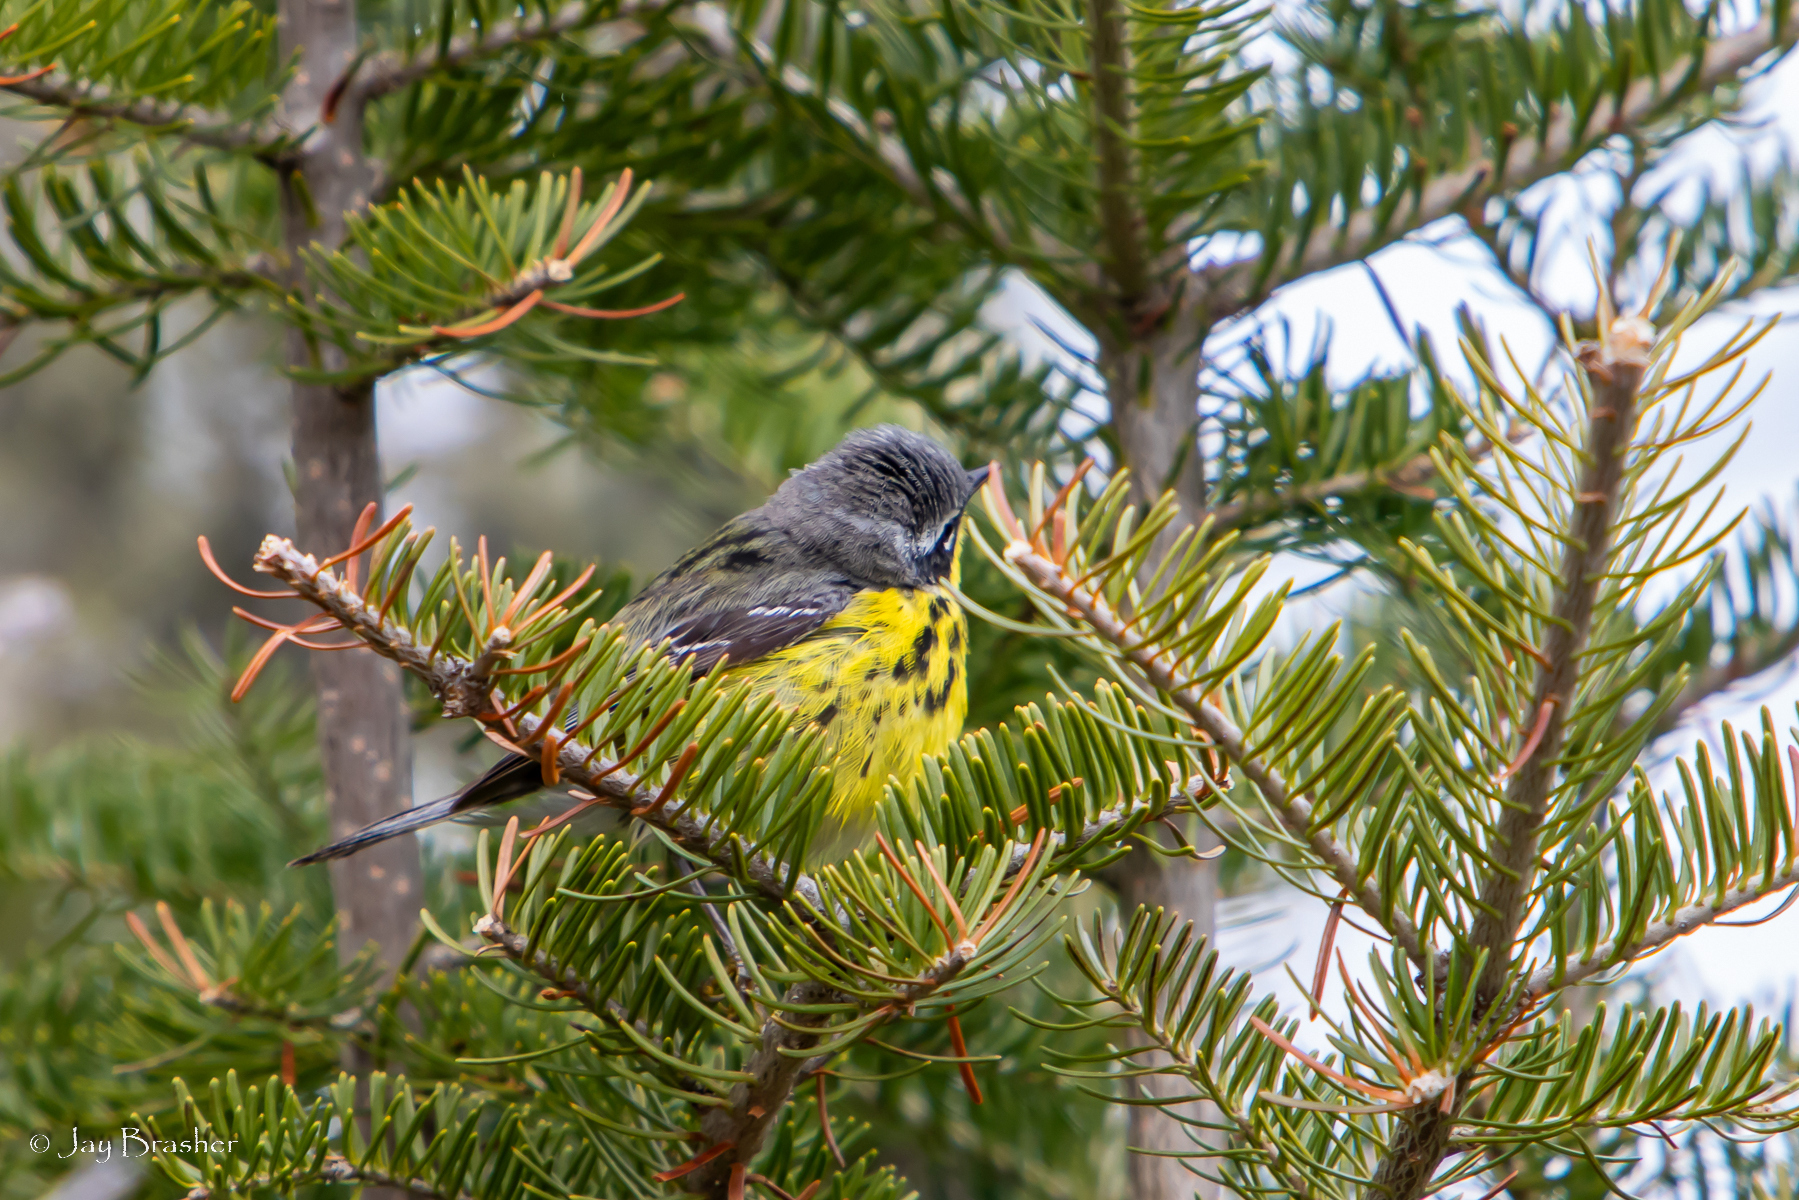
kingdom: Animalia
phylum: Chordata
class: Aves
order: Passeriformes
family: Parulidae
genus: Setophaga
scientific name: Setophaga magnolia
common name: Magnolia warbler
